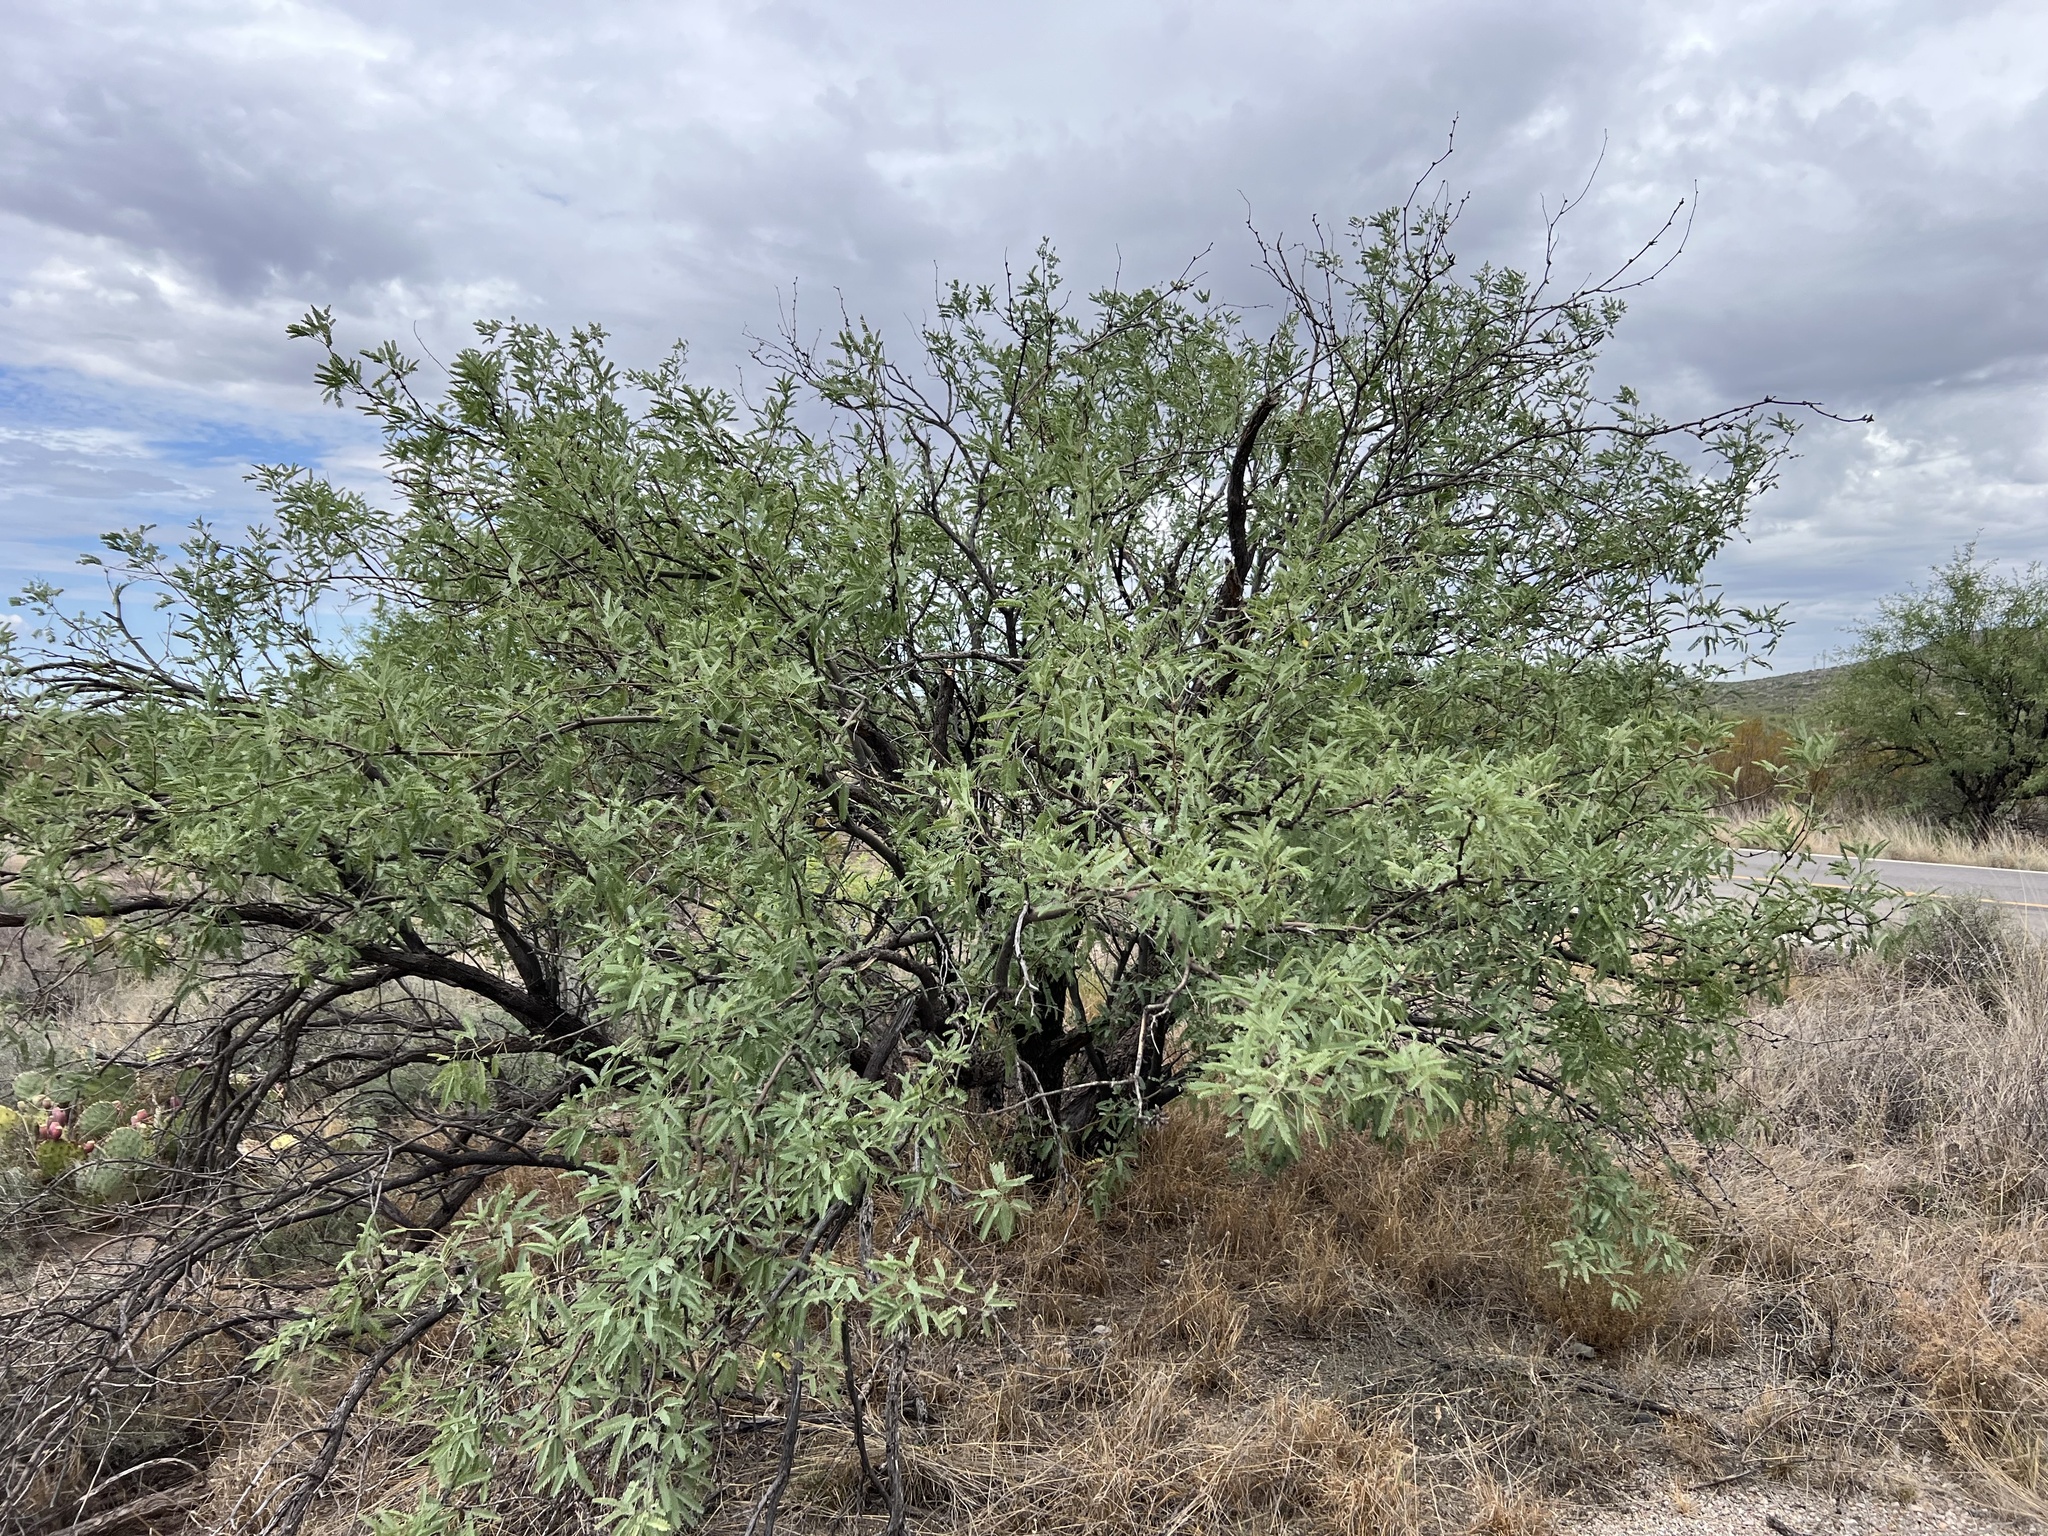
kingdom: Plantae
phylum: Tracheophyta
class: Magnoliopsida
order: Fabales
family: Fabaceae
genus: Prosopis
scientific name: Prosopis velutina
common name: Velvet mesquite
